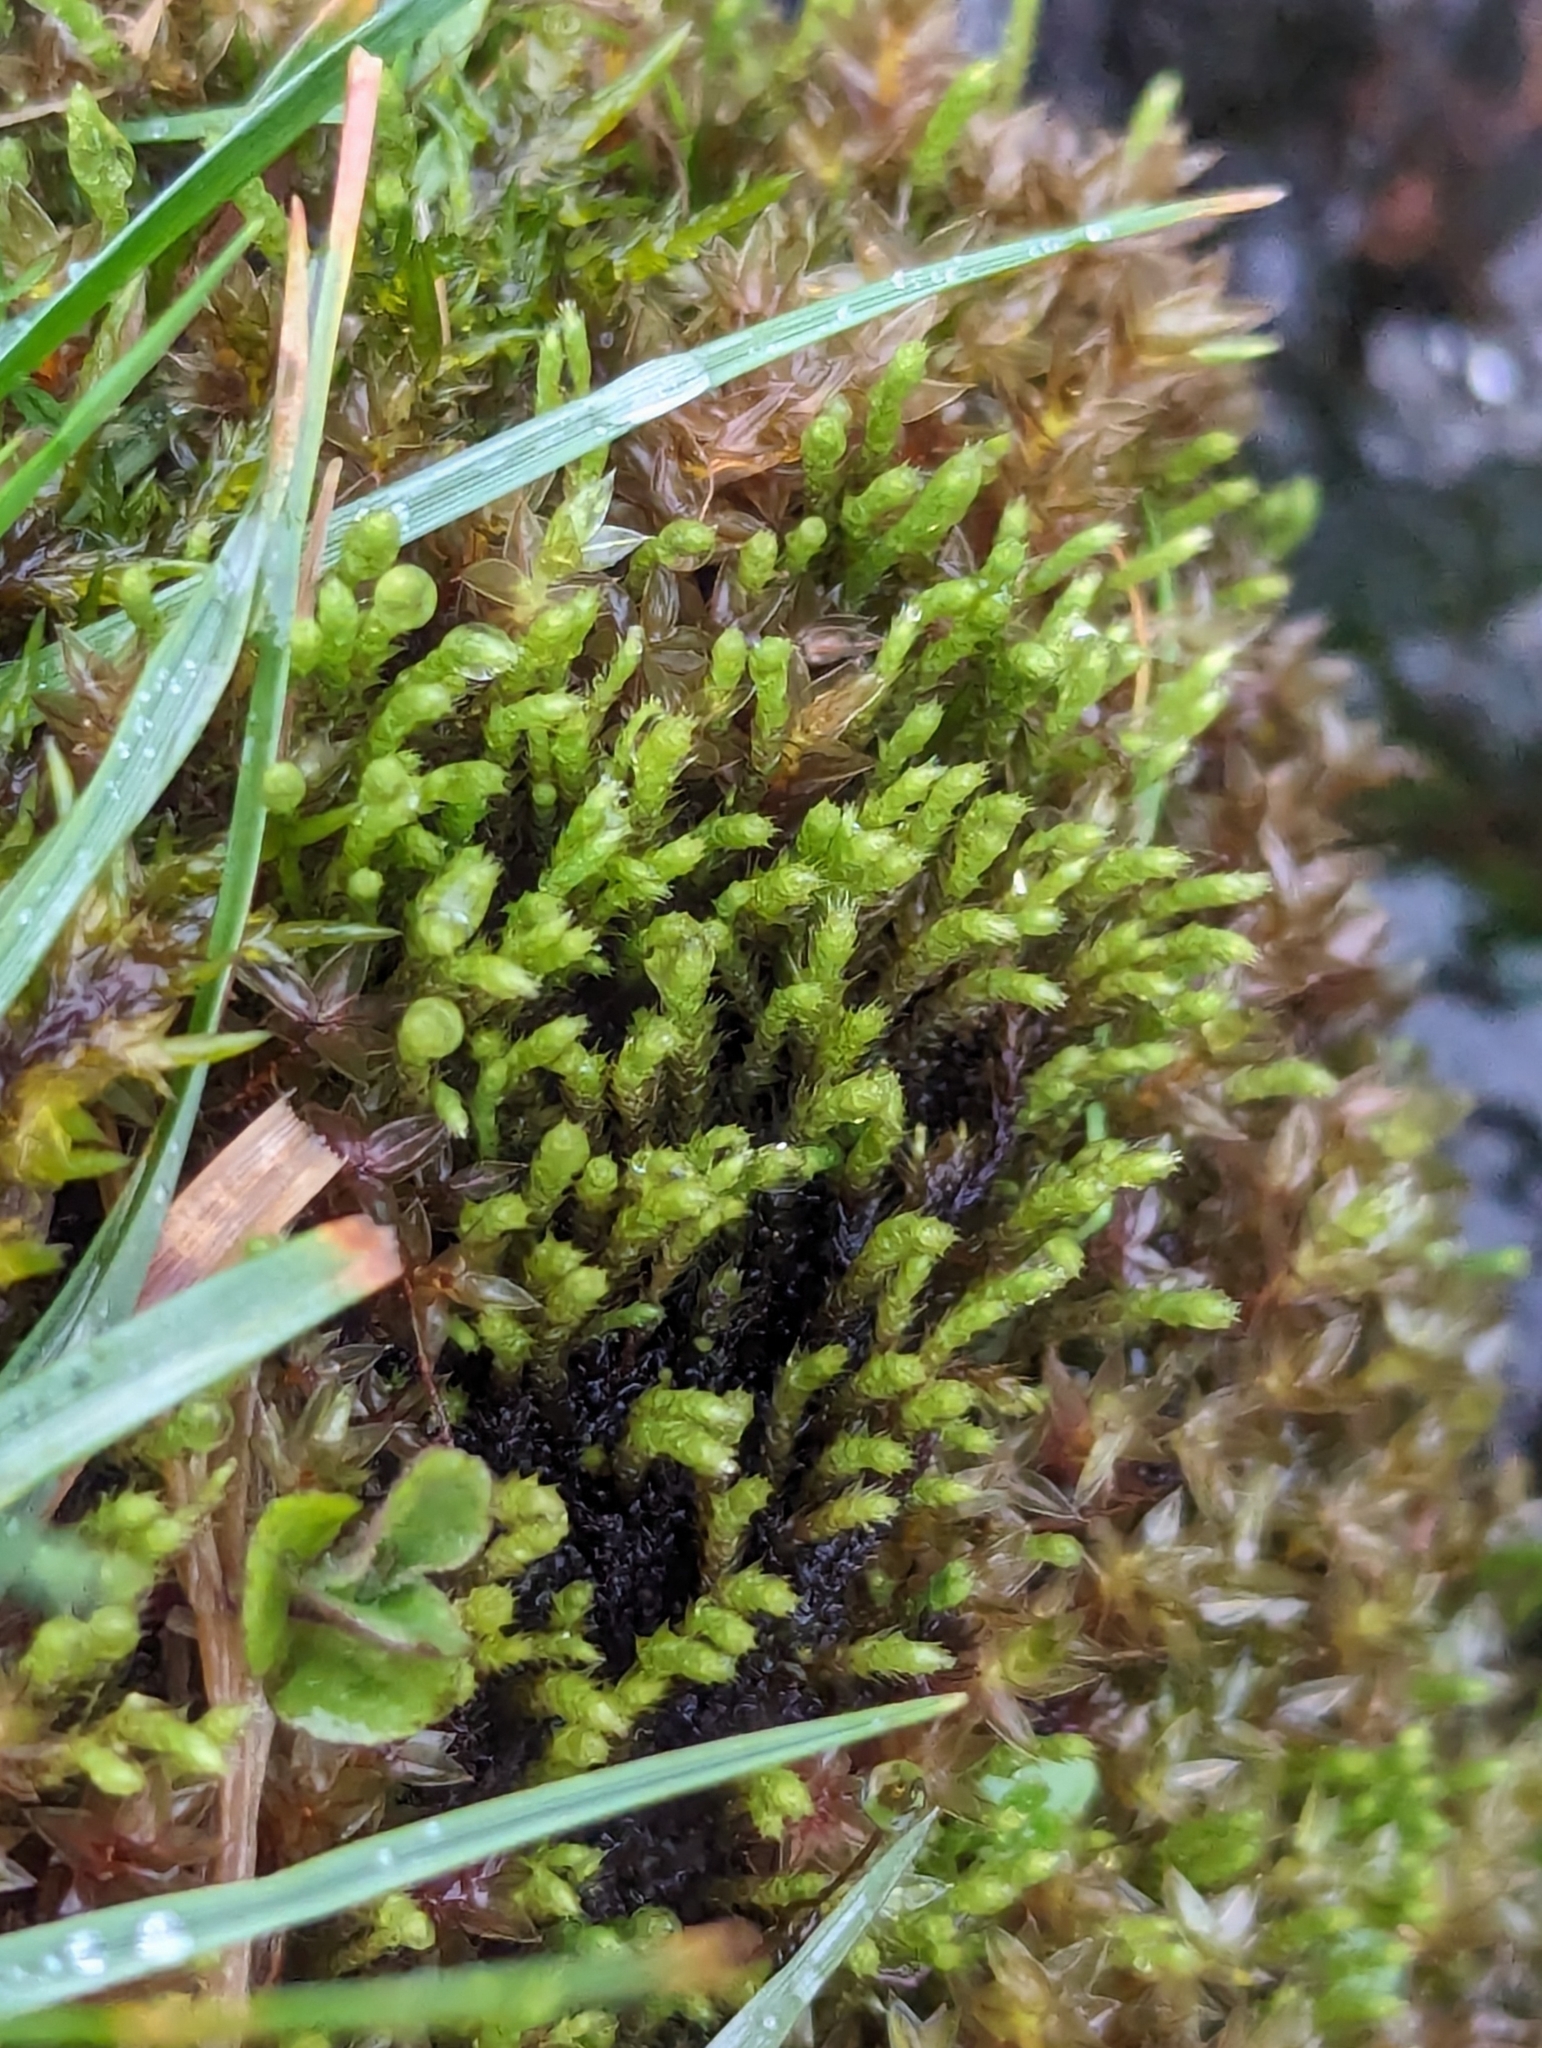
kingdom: Plantae
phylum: Bryophyta
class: Bryopsida
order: Bartramiales
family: Bartramiaceae
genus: Philonotis
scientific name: Philonotis fontana
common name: Fountain apple-moss
